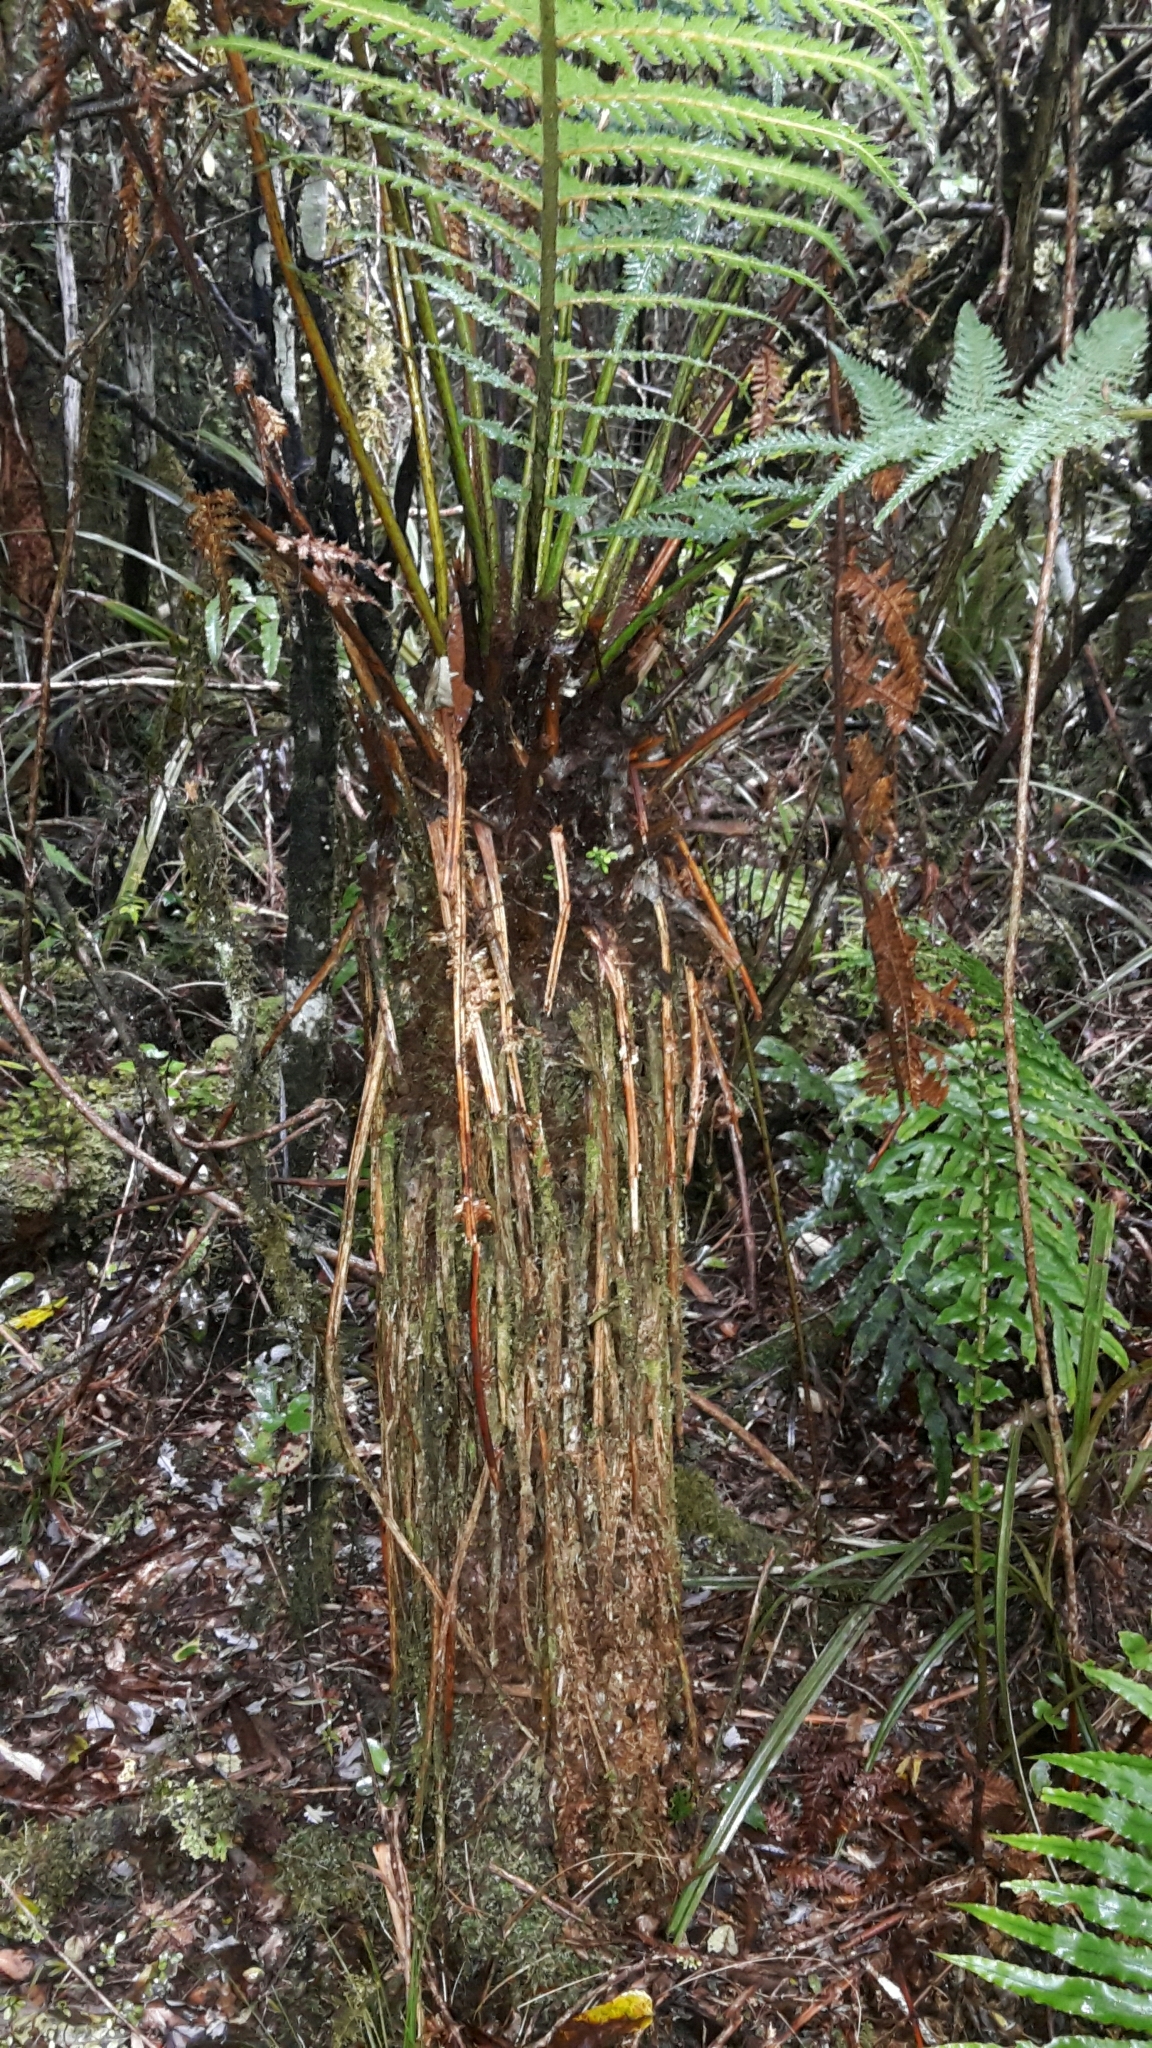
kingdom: Plantae
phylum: Tracheophyta
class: Polypodiopsida
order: Cyatheales
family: Cyatheaceae
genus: Alsophila
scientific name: Alsophila smithii
